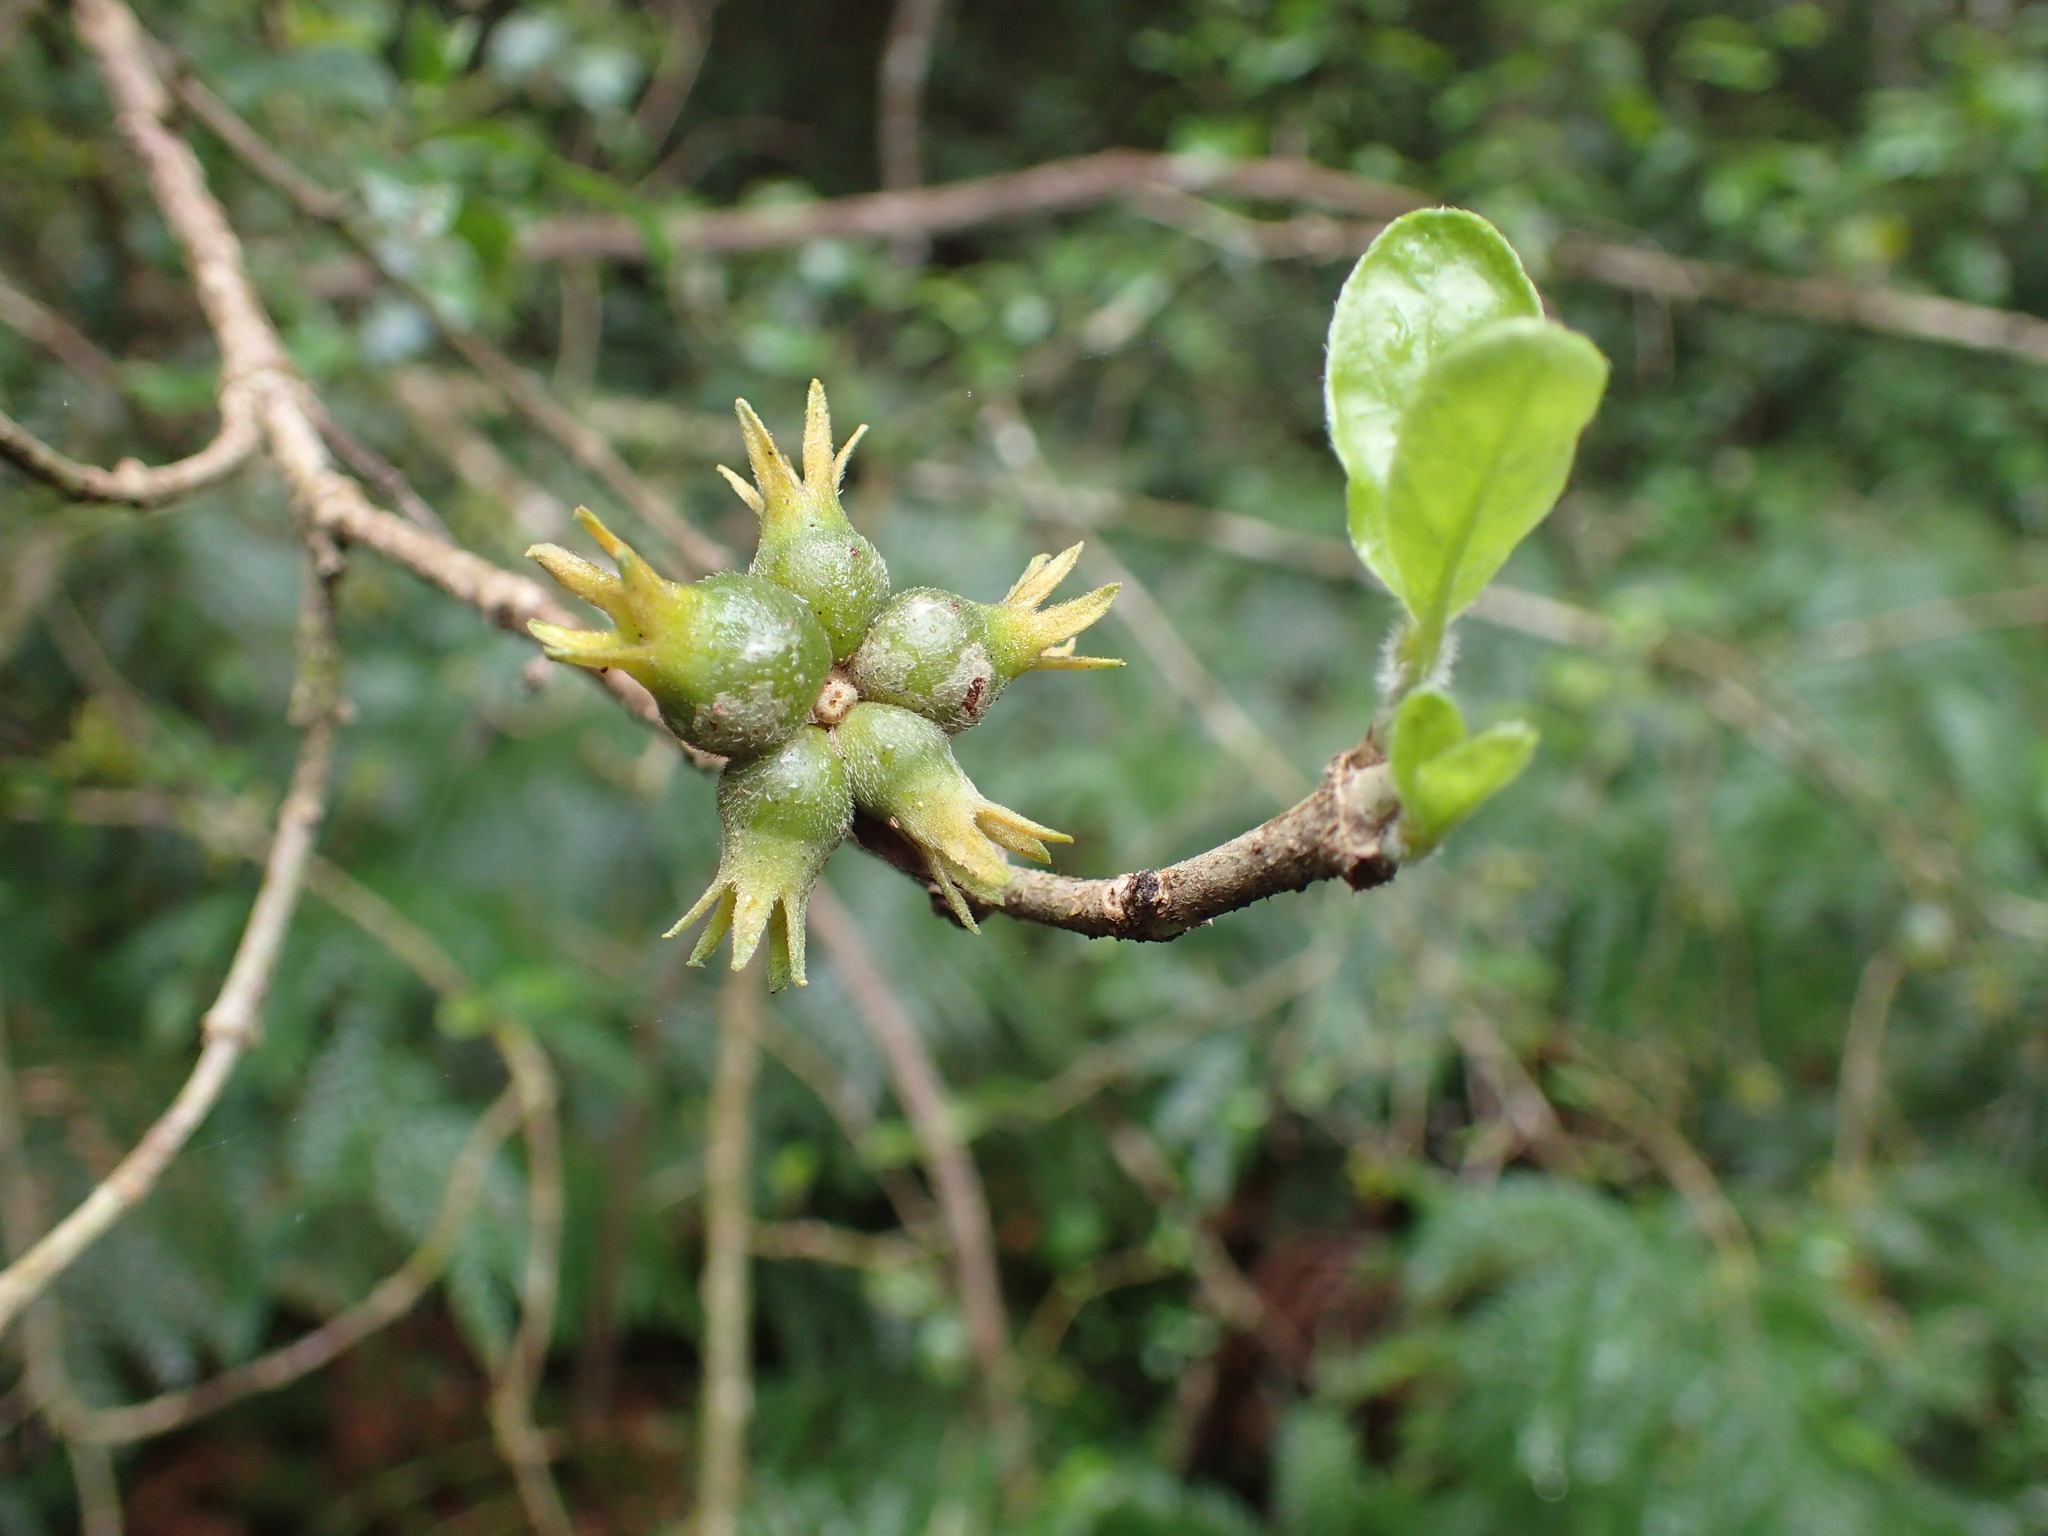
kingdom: Plantae
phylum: Tracheophyta
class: Magnoliopsida
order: Gentianales
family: Rubiaceae
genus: Burchellia
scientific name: Burchellia bubalina
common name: Wild pomegranate
